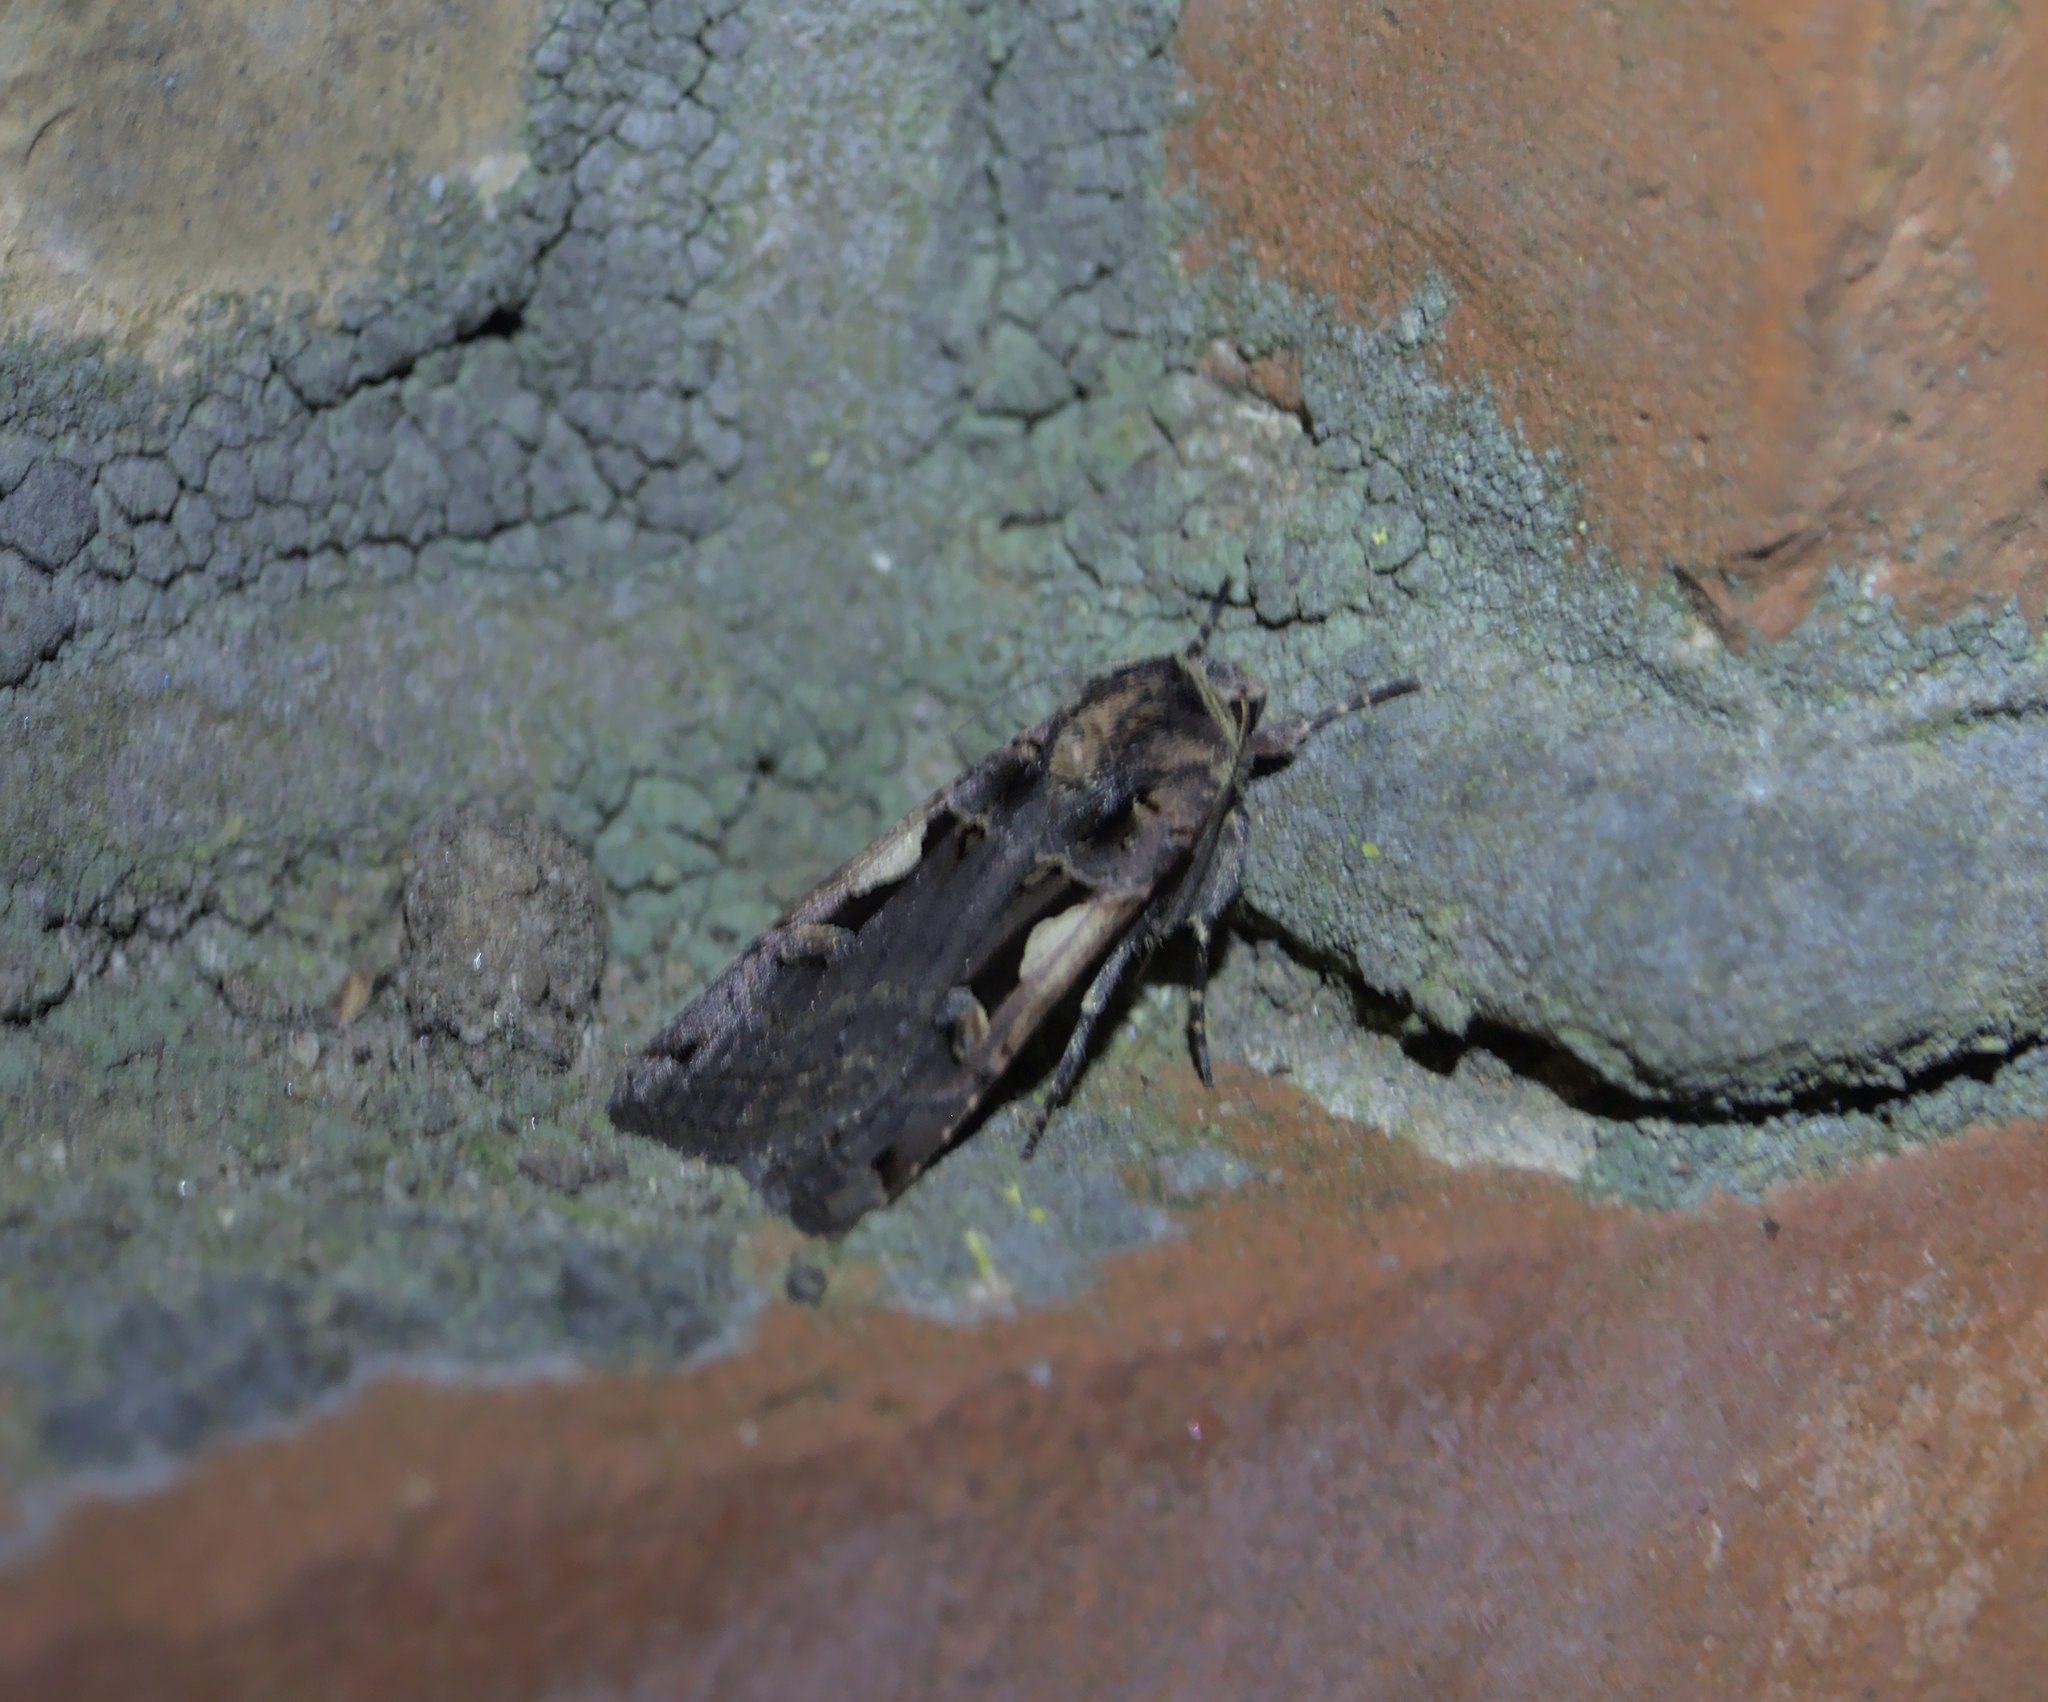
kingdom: Animalia
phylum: Arthropoda
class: Insecta
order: Lepidoptera
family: Noctuidae
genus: Xestia
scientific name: Xestia c-nigrum
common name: Setaceous hebrew character
